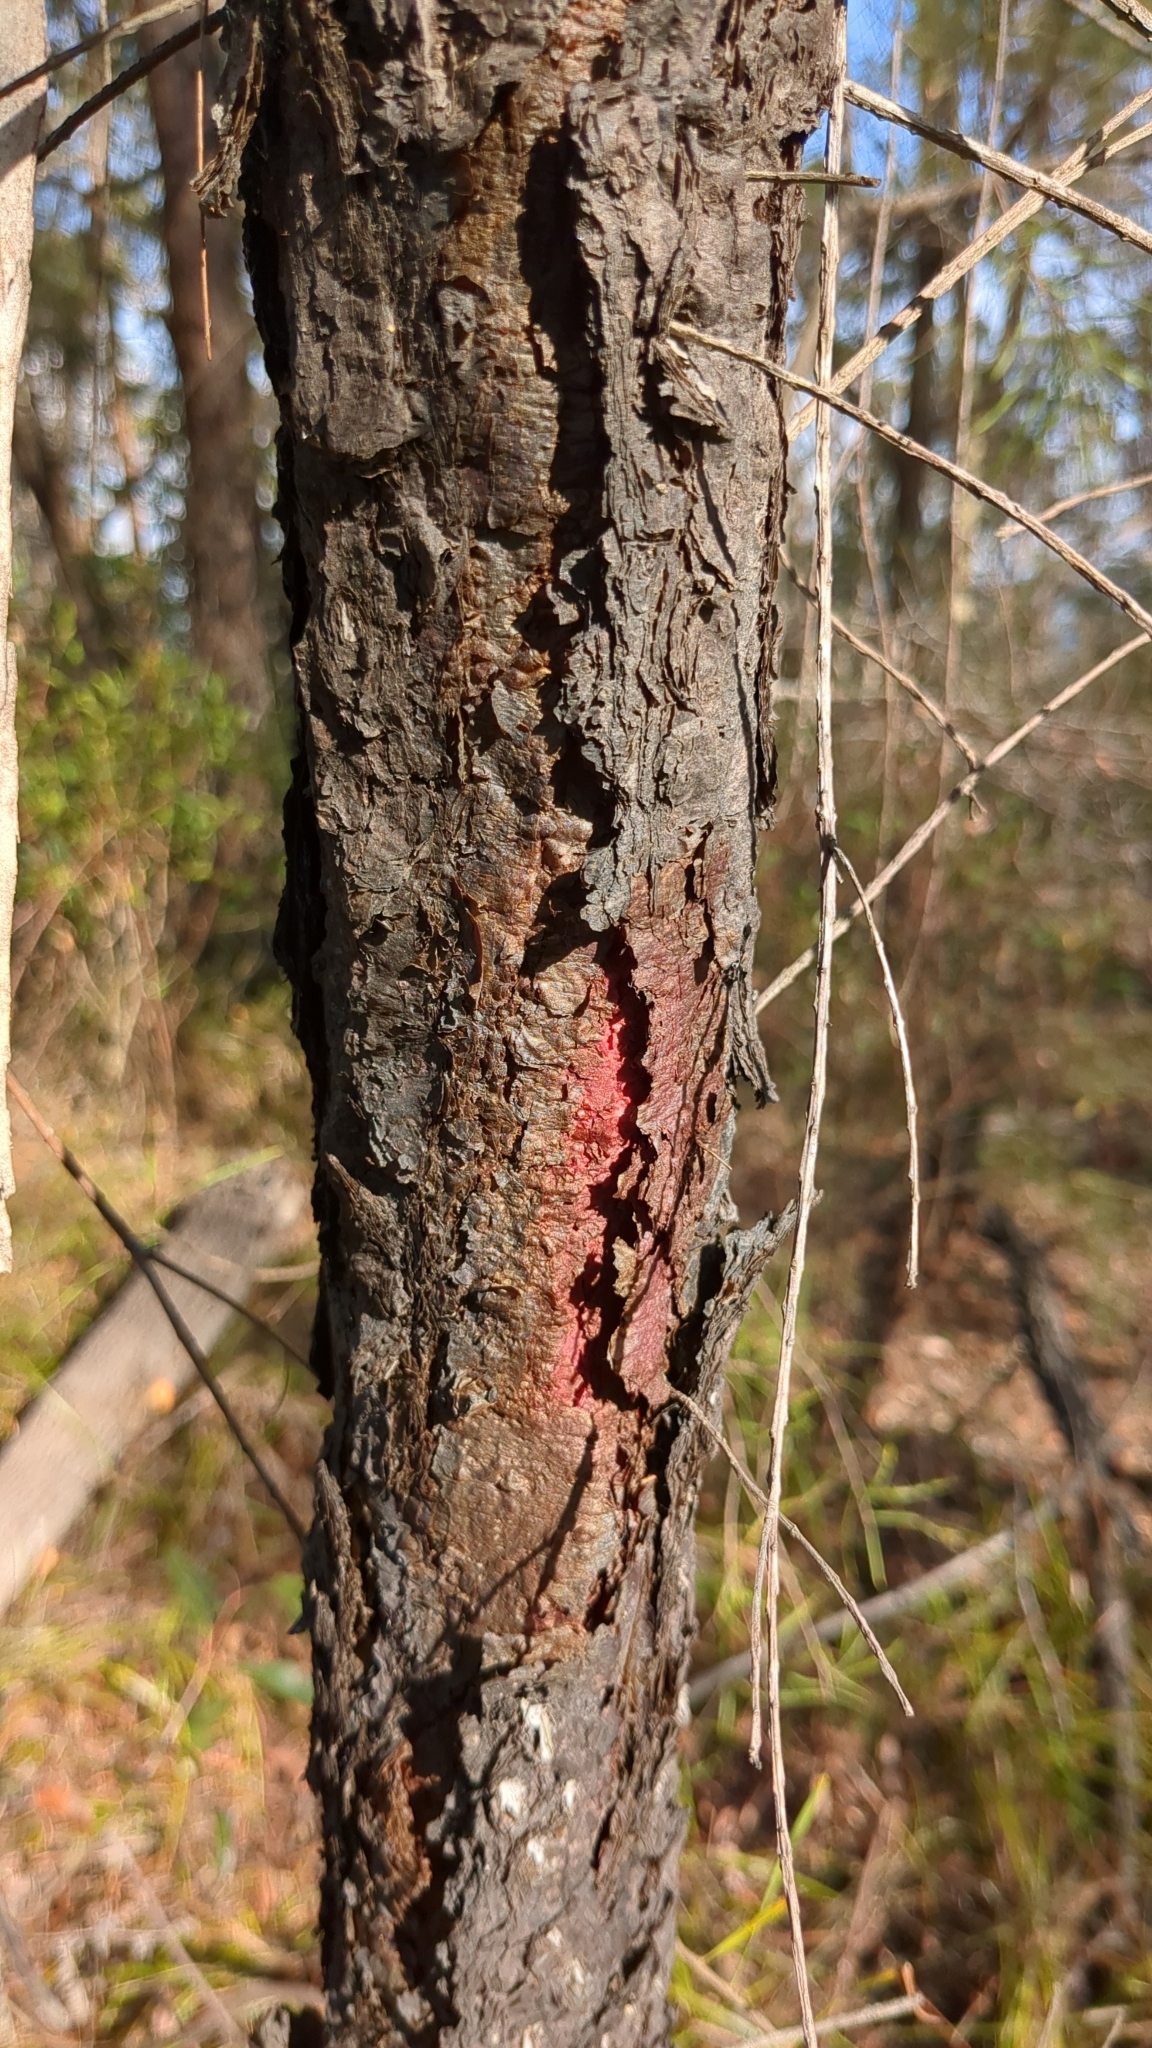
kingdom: Plantae
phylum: Tracheophyta
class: Magnoliopsida
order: Proteales
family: Proteaceae
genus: Persoonia
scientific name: Persoonia linearis
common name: Narrow-leaf geebung
